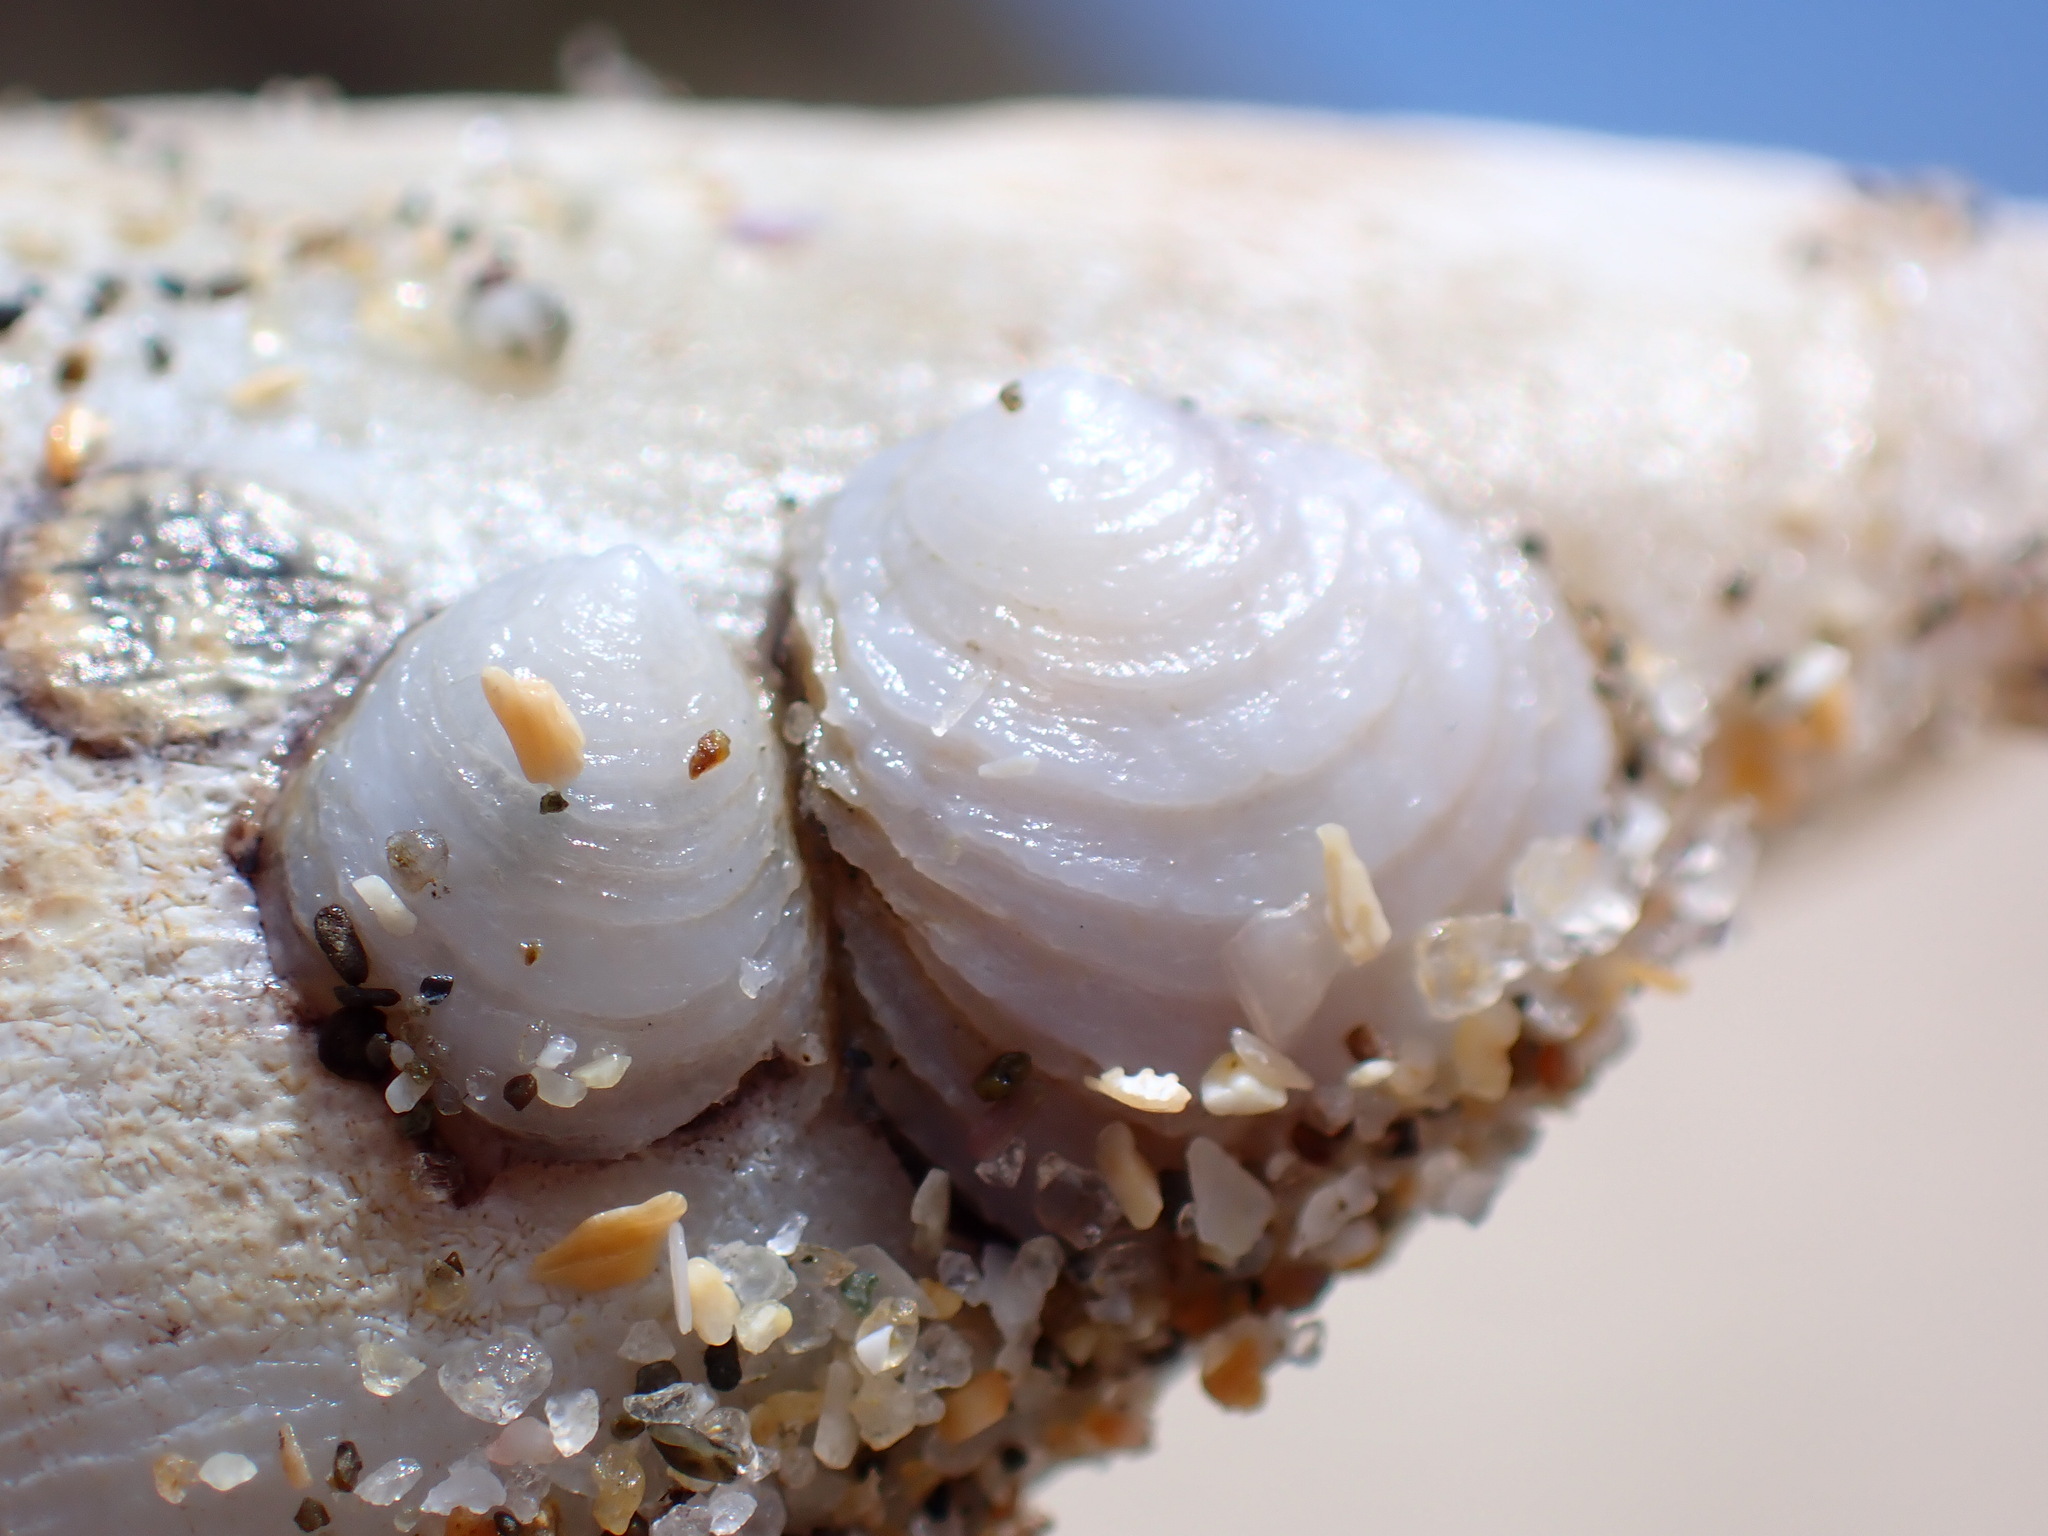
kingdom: Animalia
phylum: Mollusca
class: Gastropoda
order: Littorinimorpha
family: Hipponicidae
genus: Hipponix
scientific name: Hipponix panamensis
